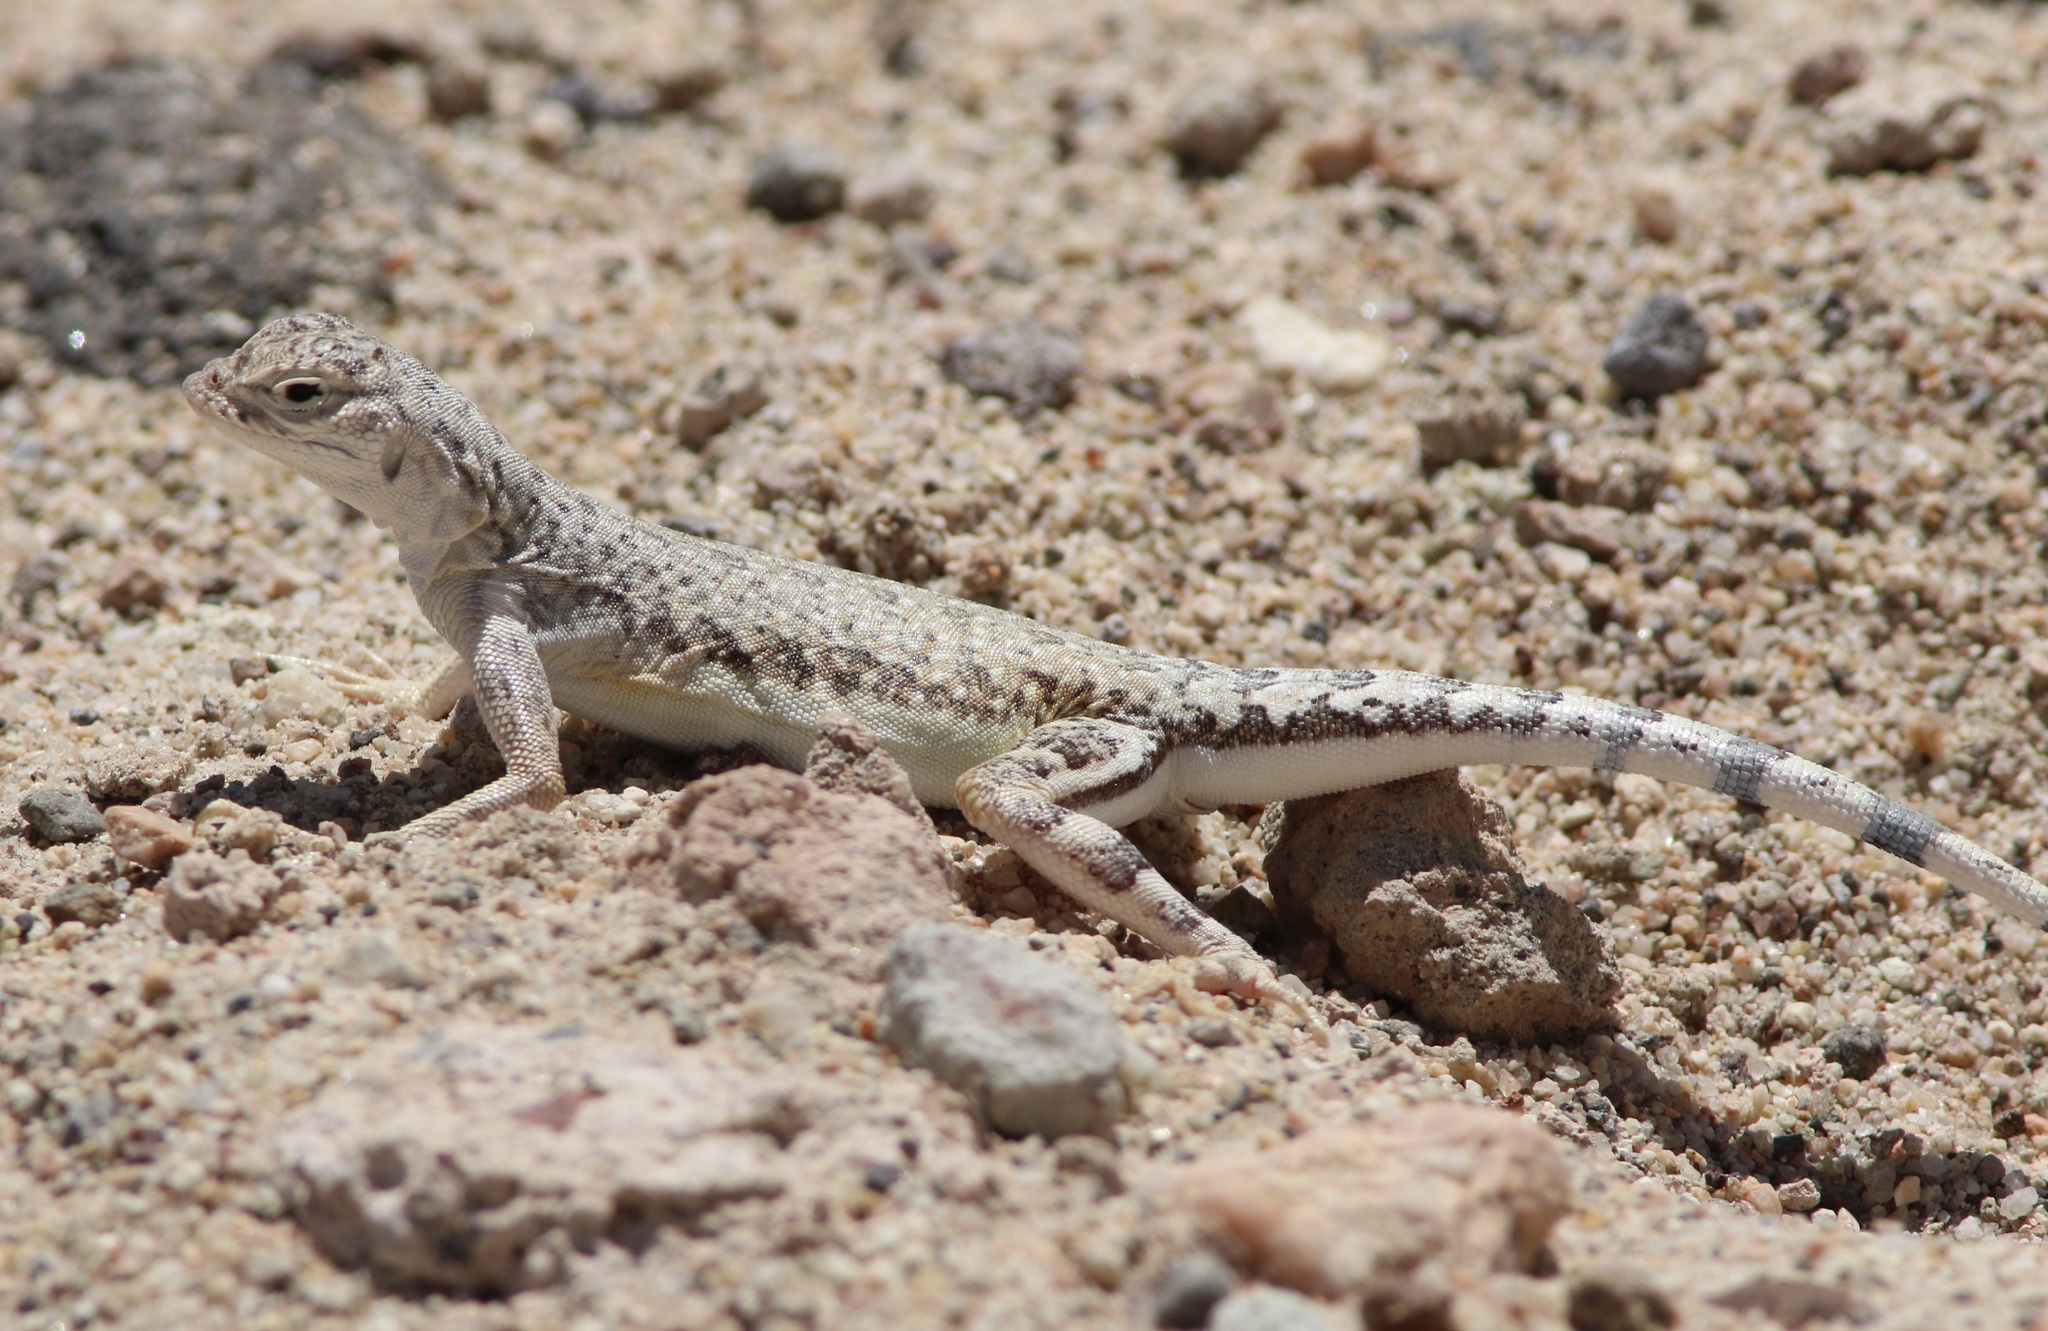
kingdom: Animalia
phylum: Chordata
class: Squamata
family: Phrynosomatidae
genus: Callisaurus
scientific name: Callisaurus draconoides
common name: Zebra-tailed lizard
